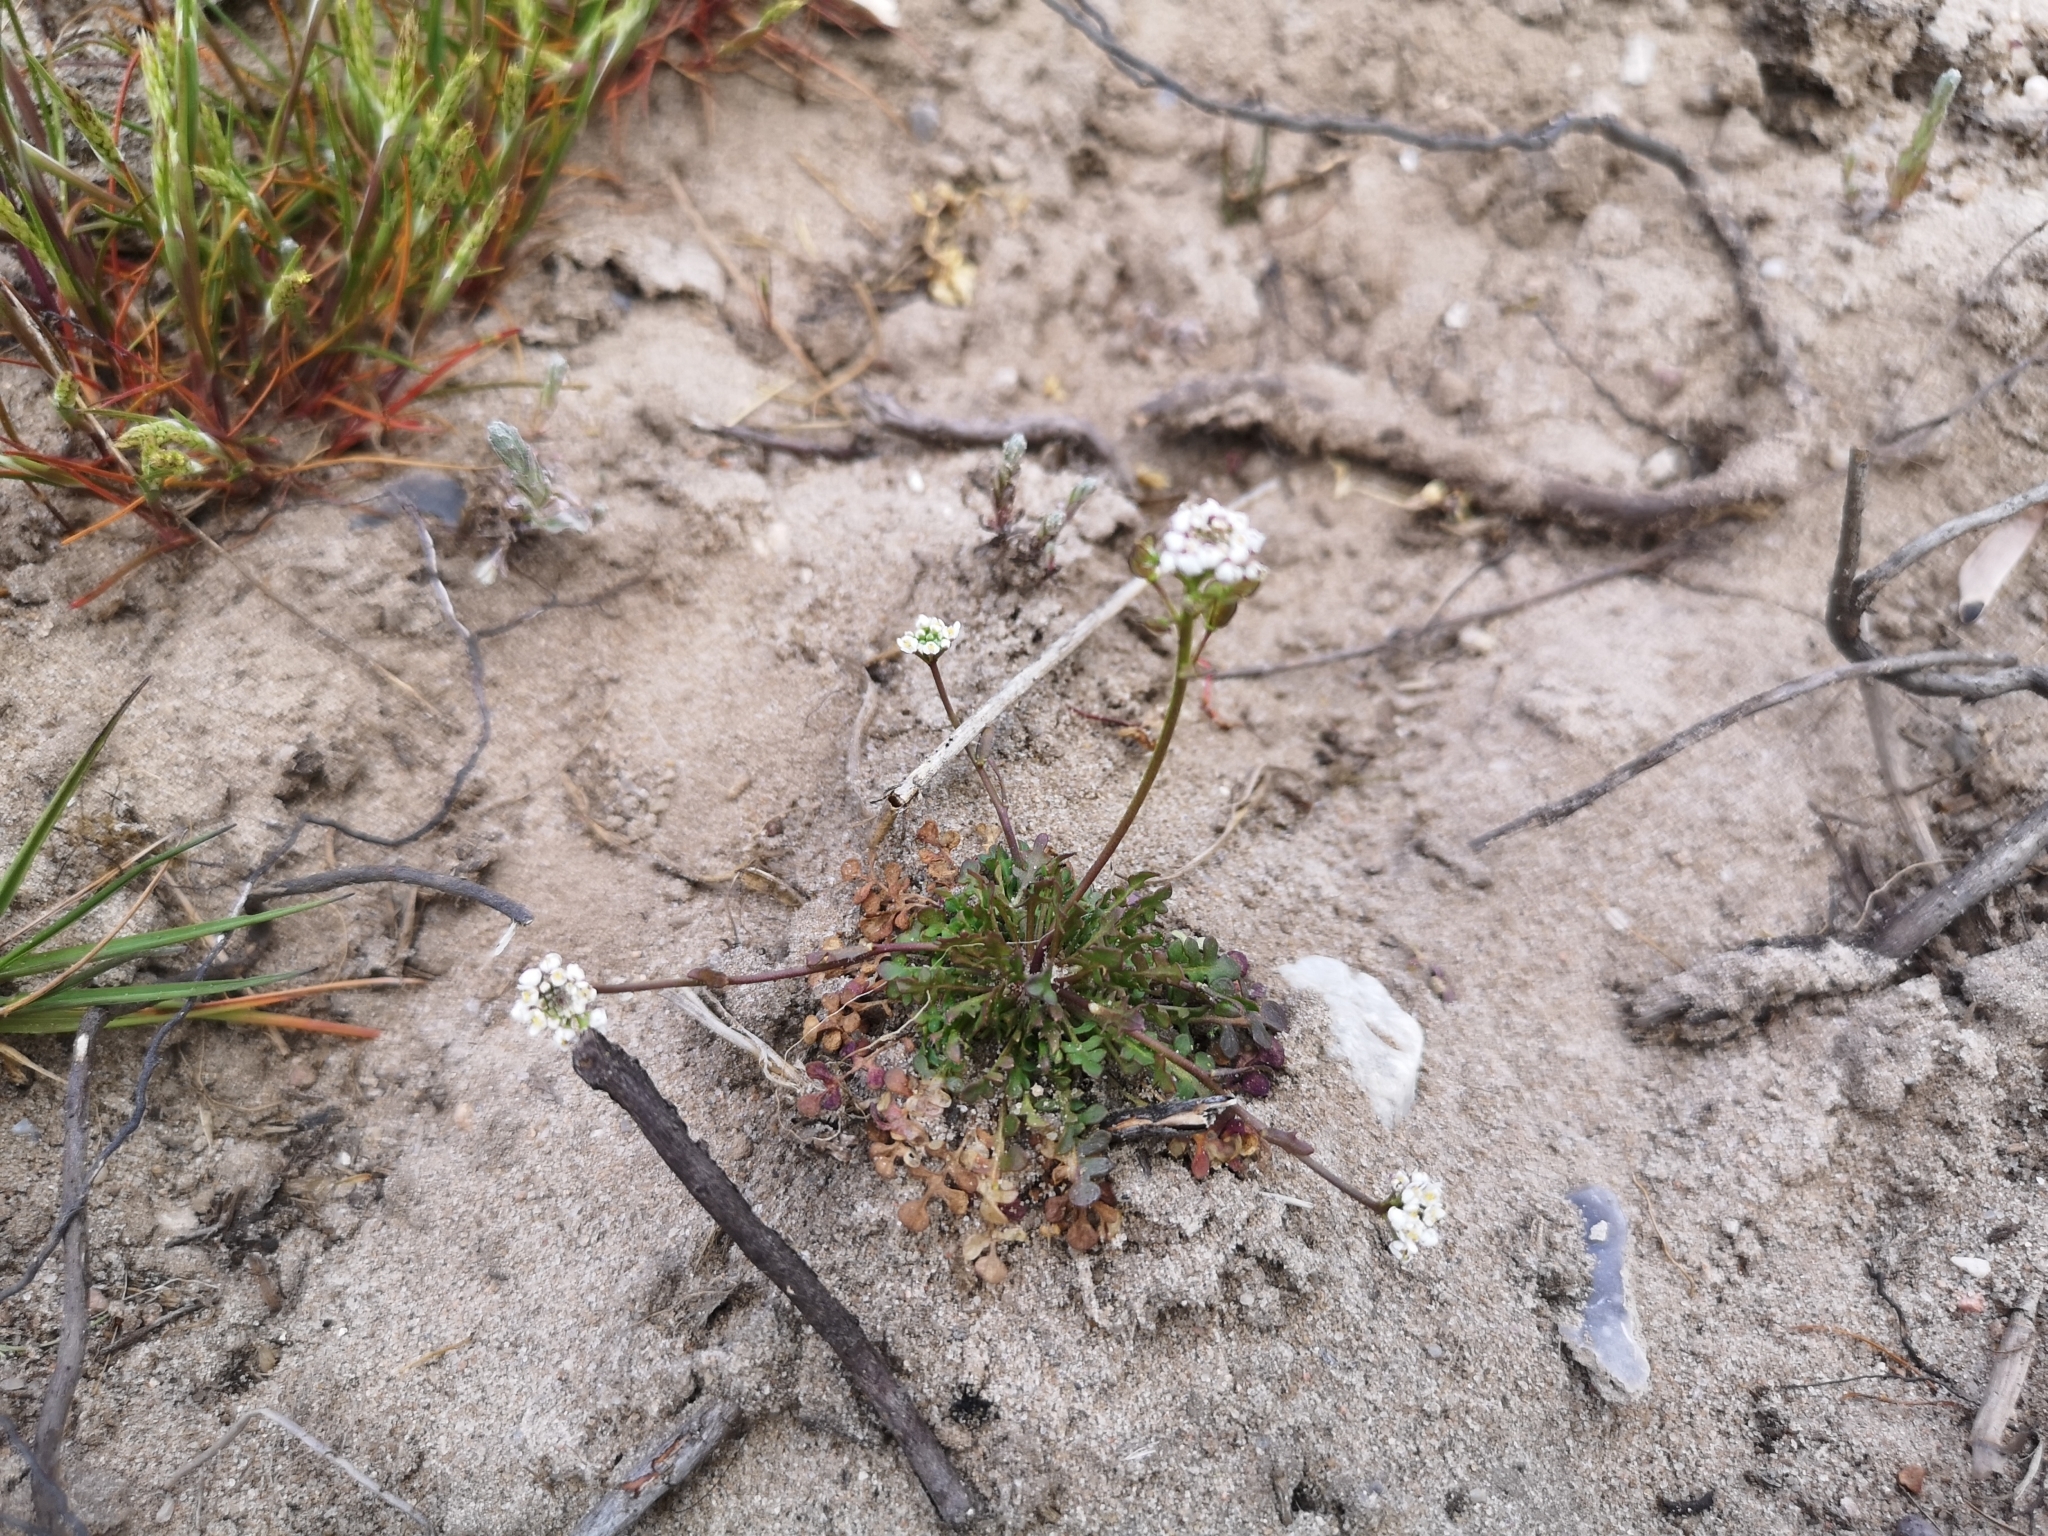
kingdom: Plantae
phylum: Tracheophyta
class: Magnoliopsida
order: Brassicales
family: Brassicaceae
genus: Teesdalia
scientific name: Teesdalia nudicaulis
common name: Shepherd's cress
